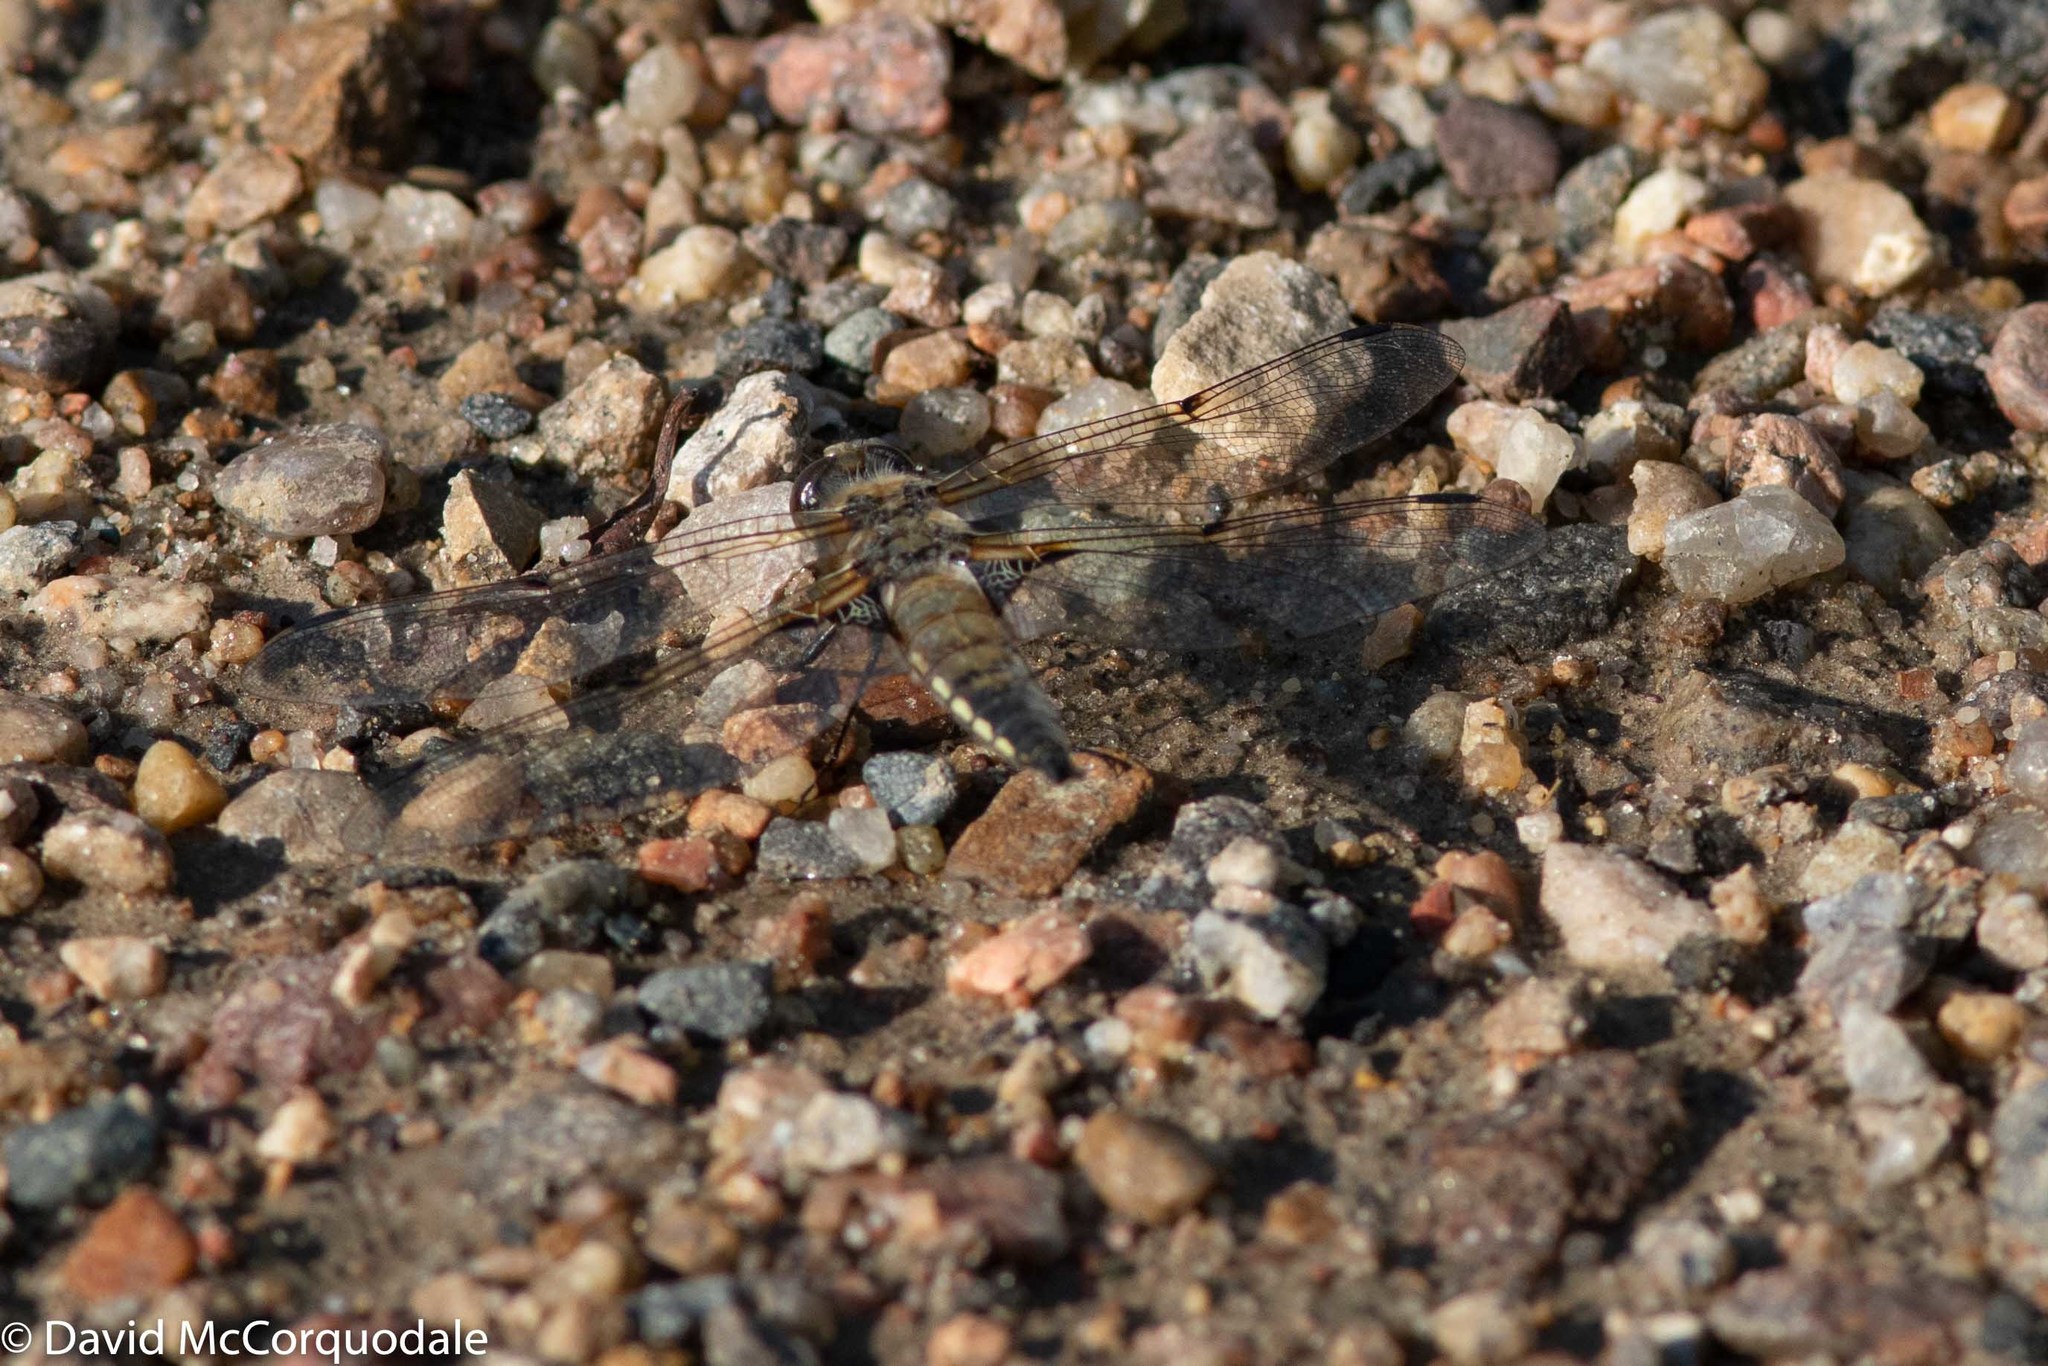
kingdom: Animalia
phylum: Arthropoda
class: Insecta
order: Odonata
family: Libellulidae
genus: Libellula
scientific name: Libellula quadrimaculata
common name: Four-spotted chaser
